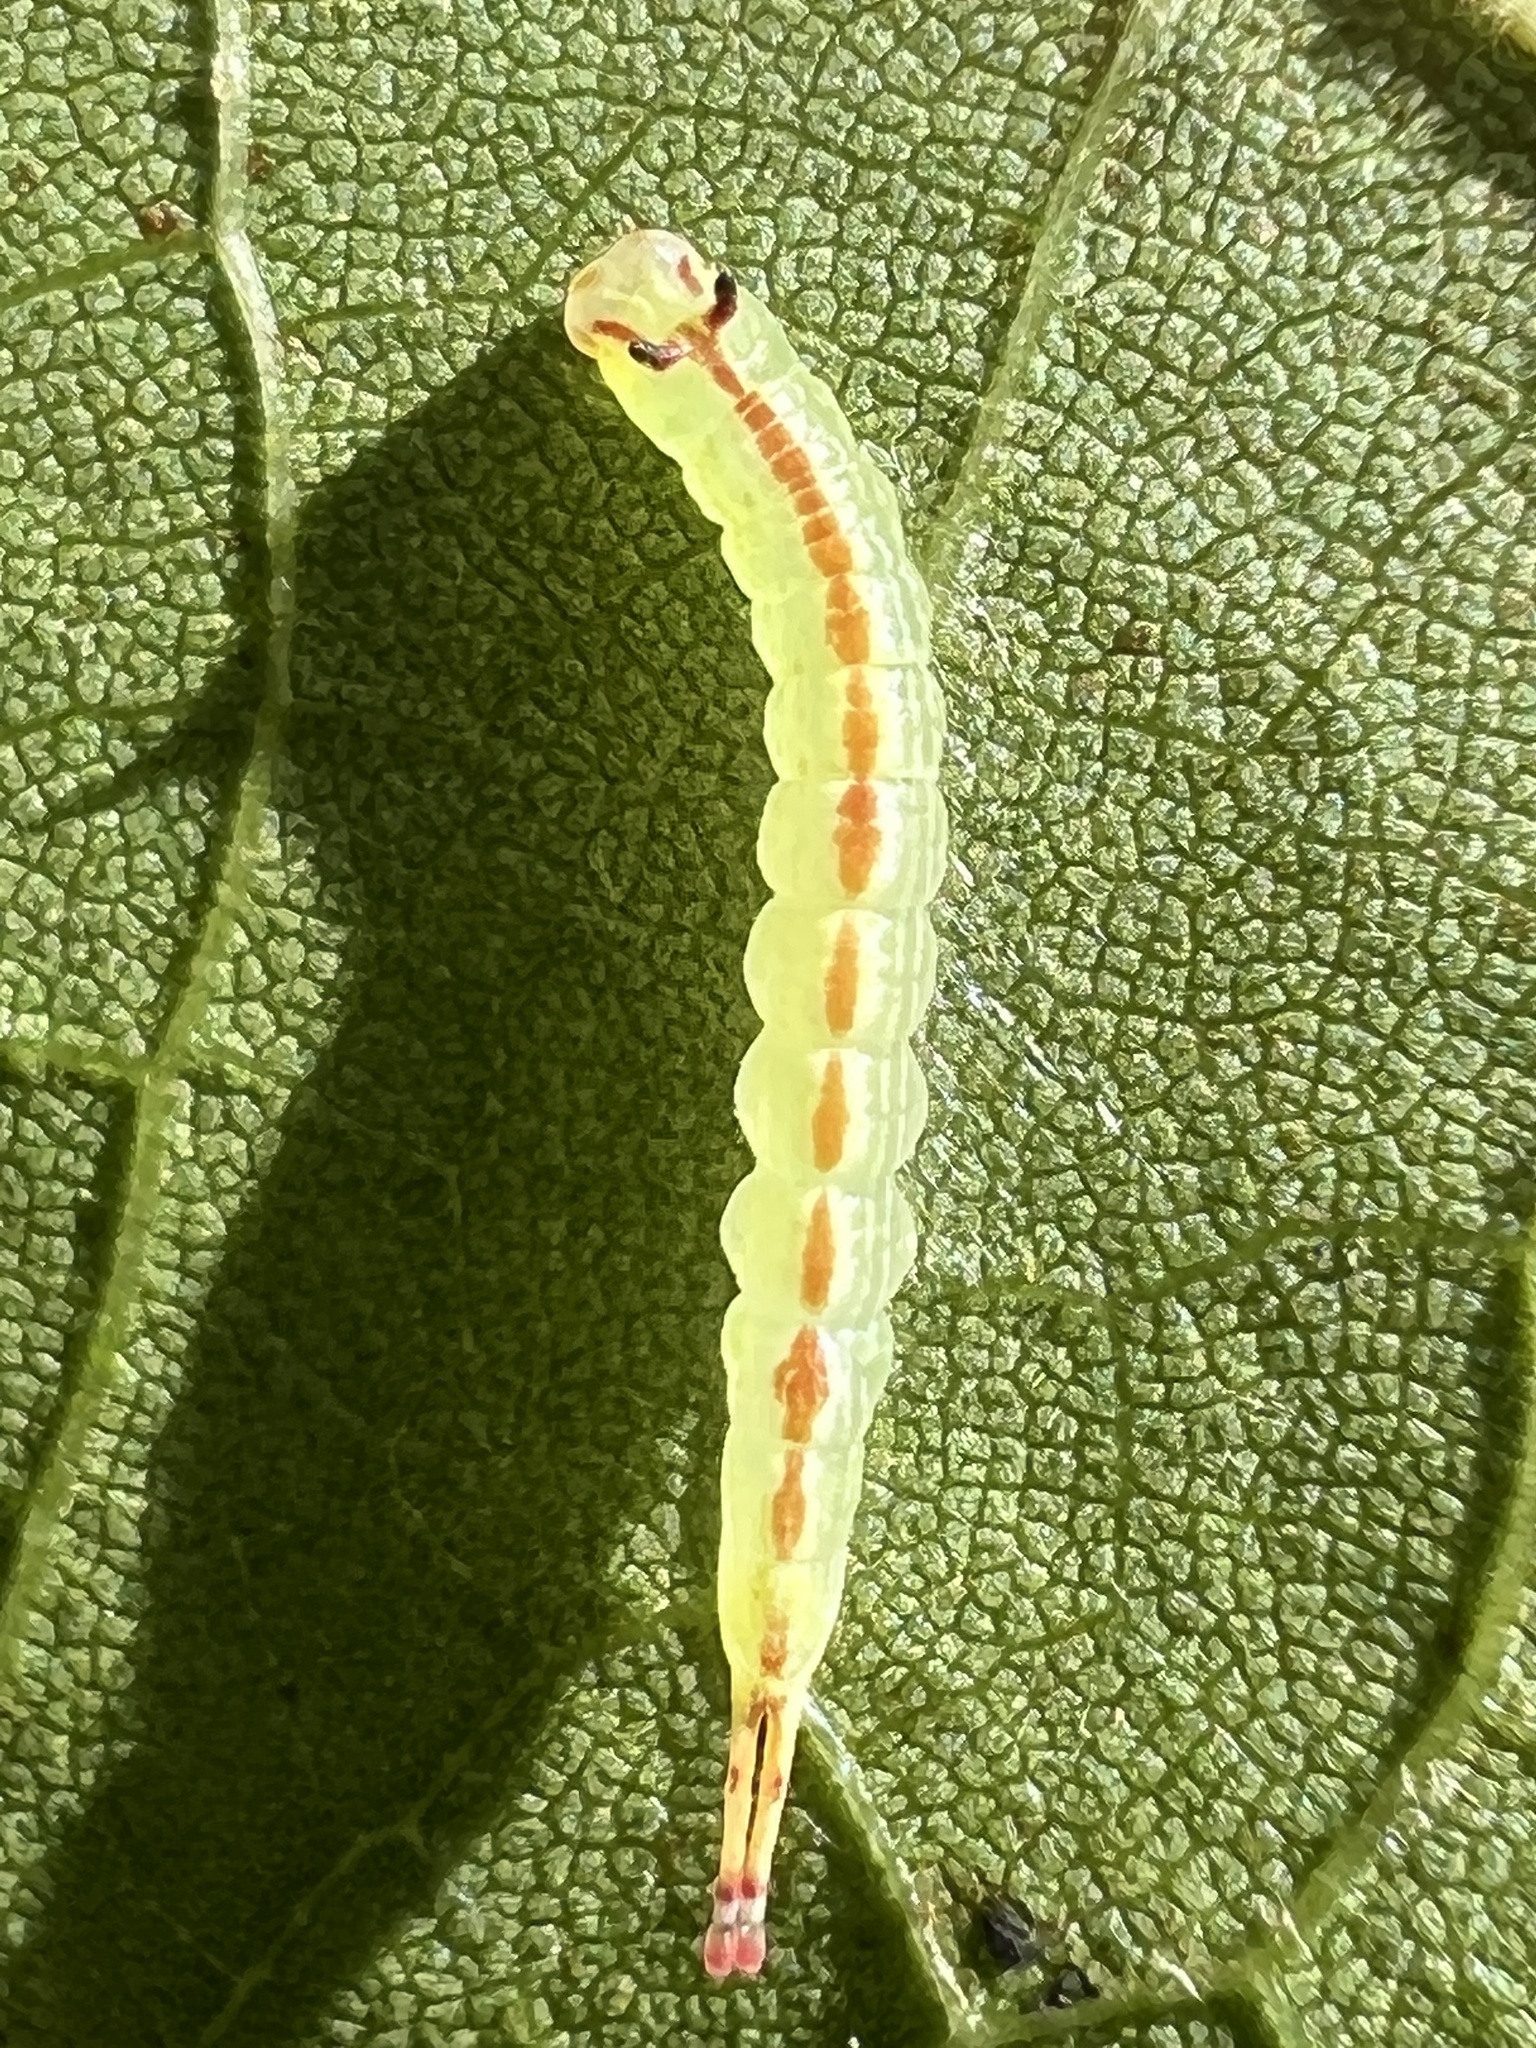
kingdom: Animalia
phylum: Arthropoda
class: Insecta
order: Lepidoptera
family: Notodontidae
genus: Misogada
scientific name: Misogada unicolor
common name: Drab prominent
